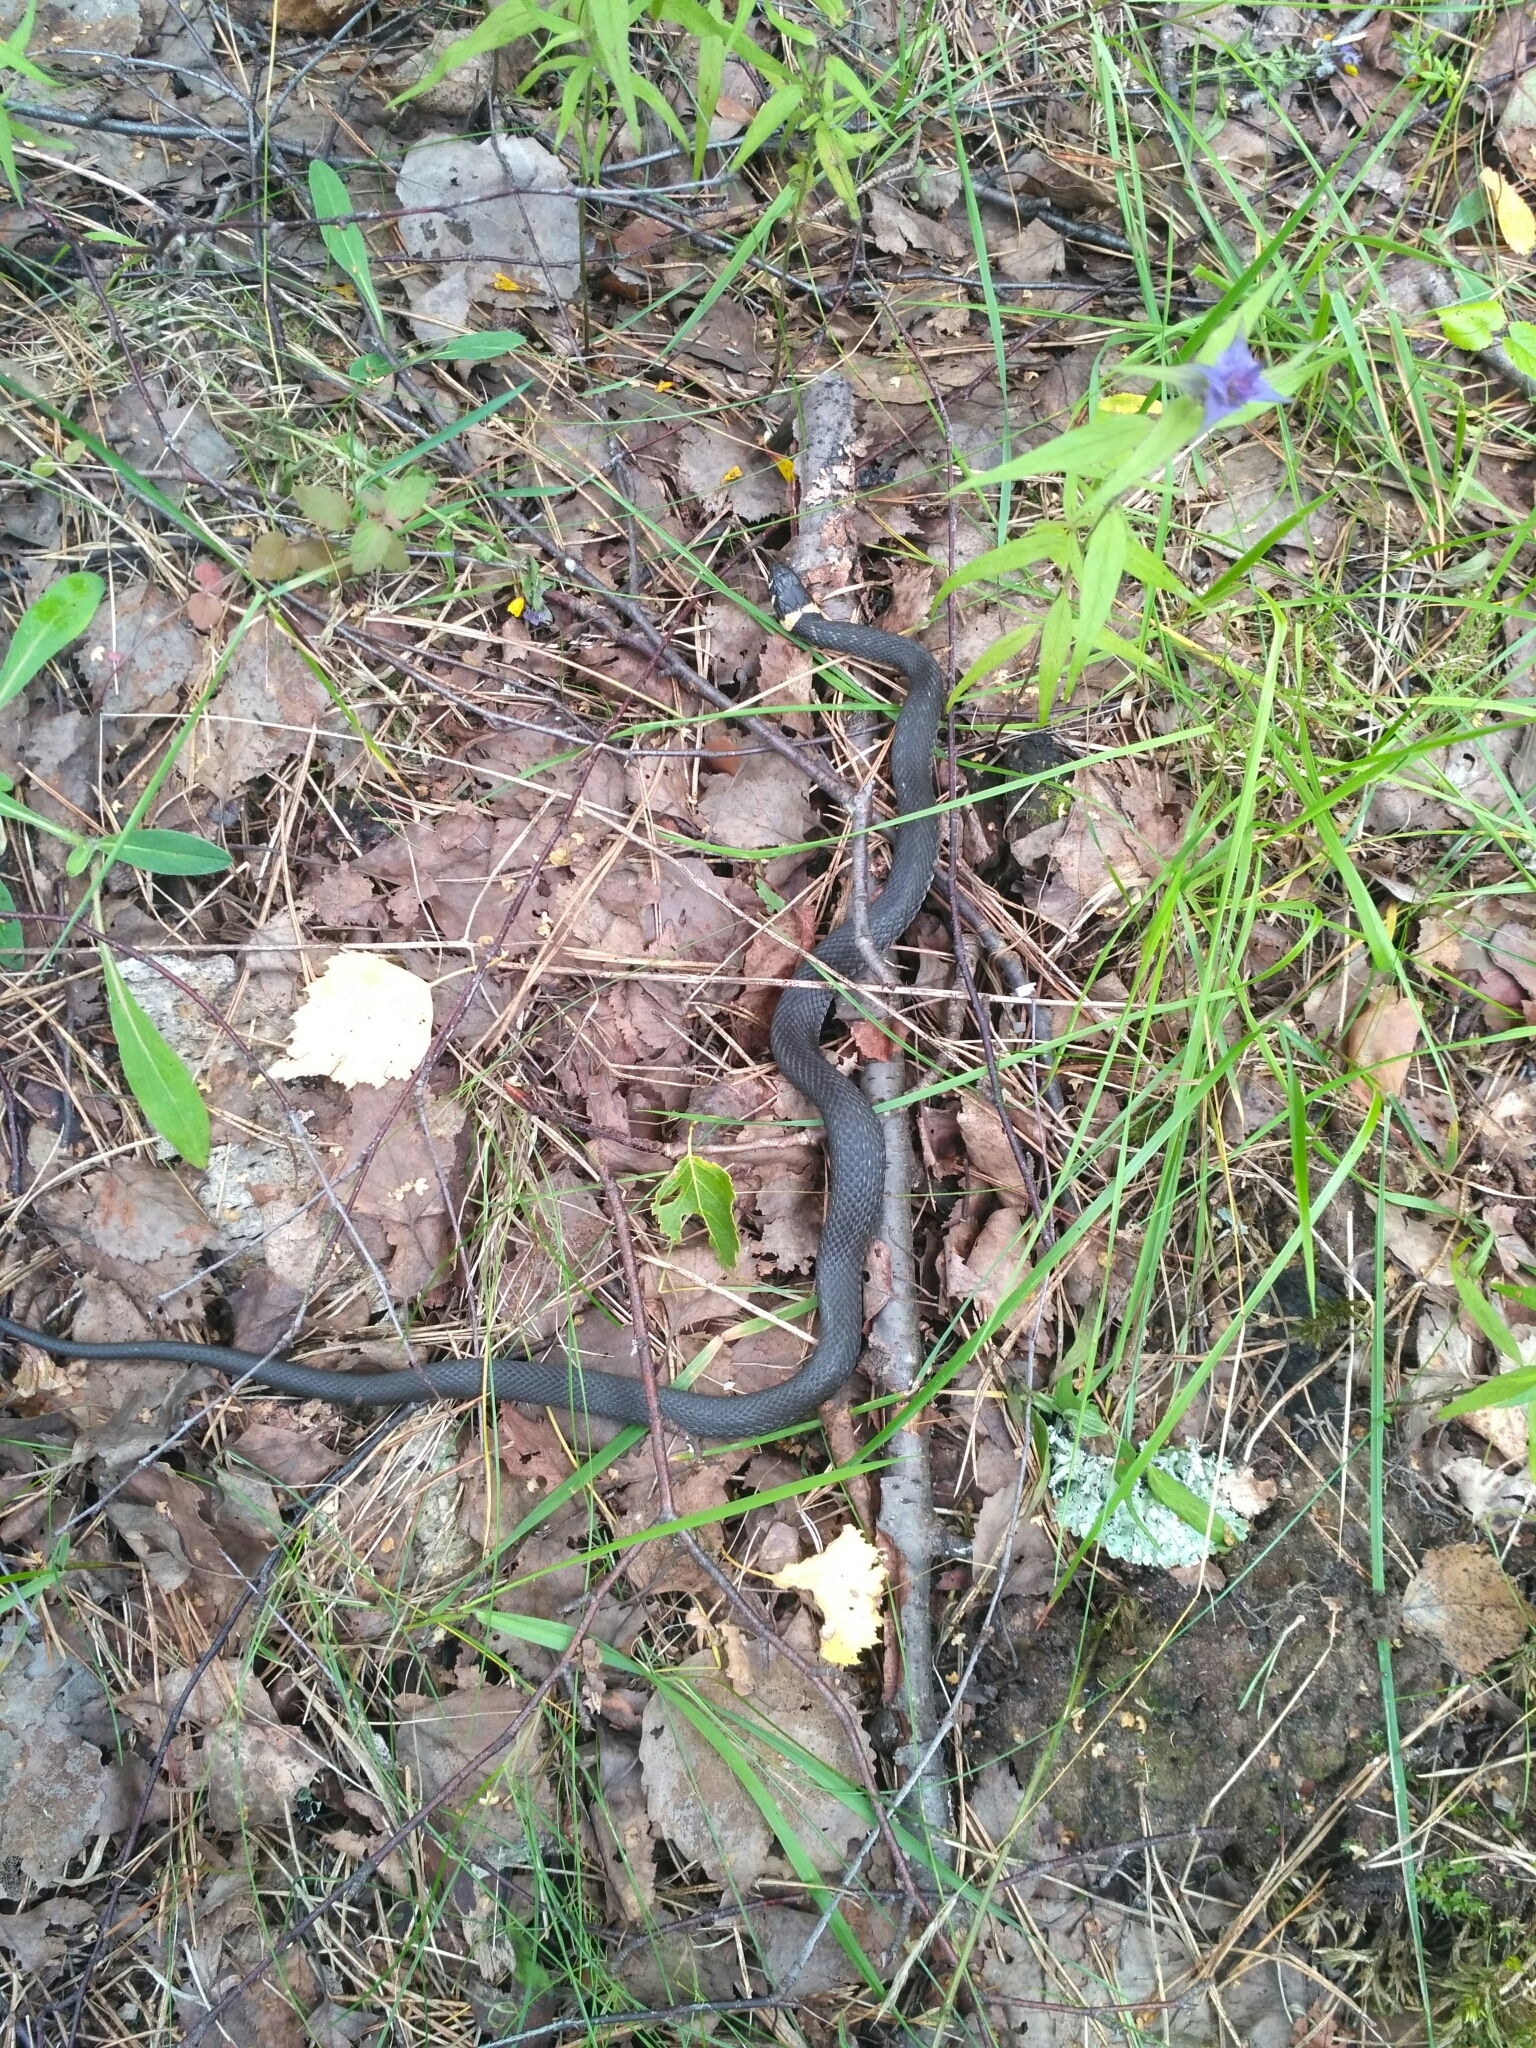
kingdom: Animalia
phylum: Chordata
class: Squamata
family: Colubridae
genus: Natrix
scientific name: Natrix natrix
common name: Grass snake
